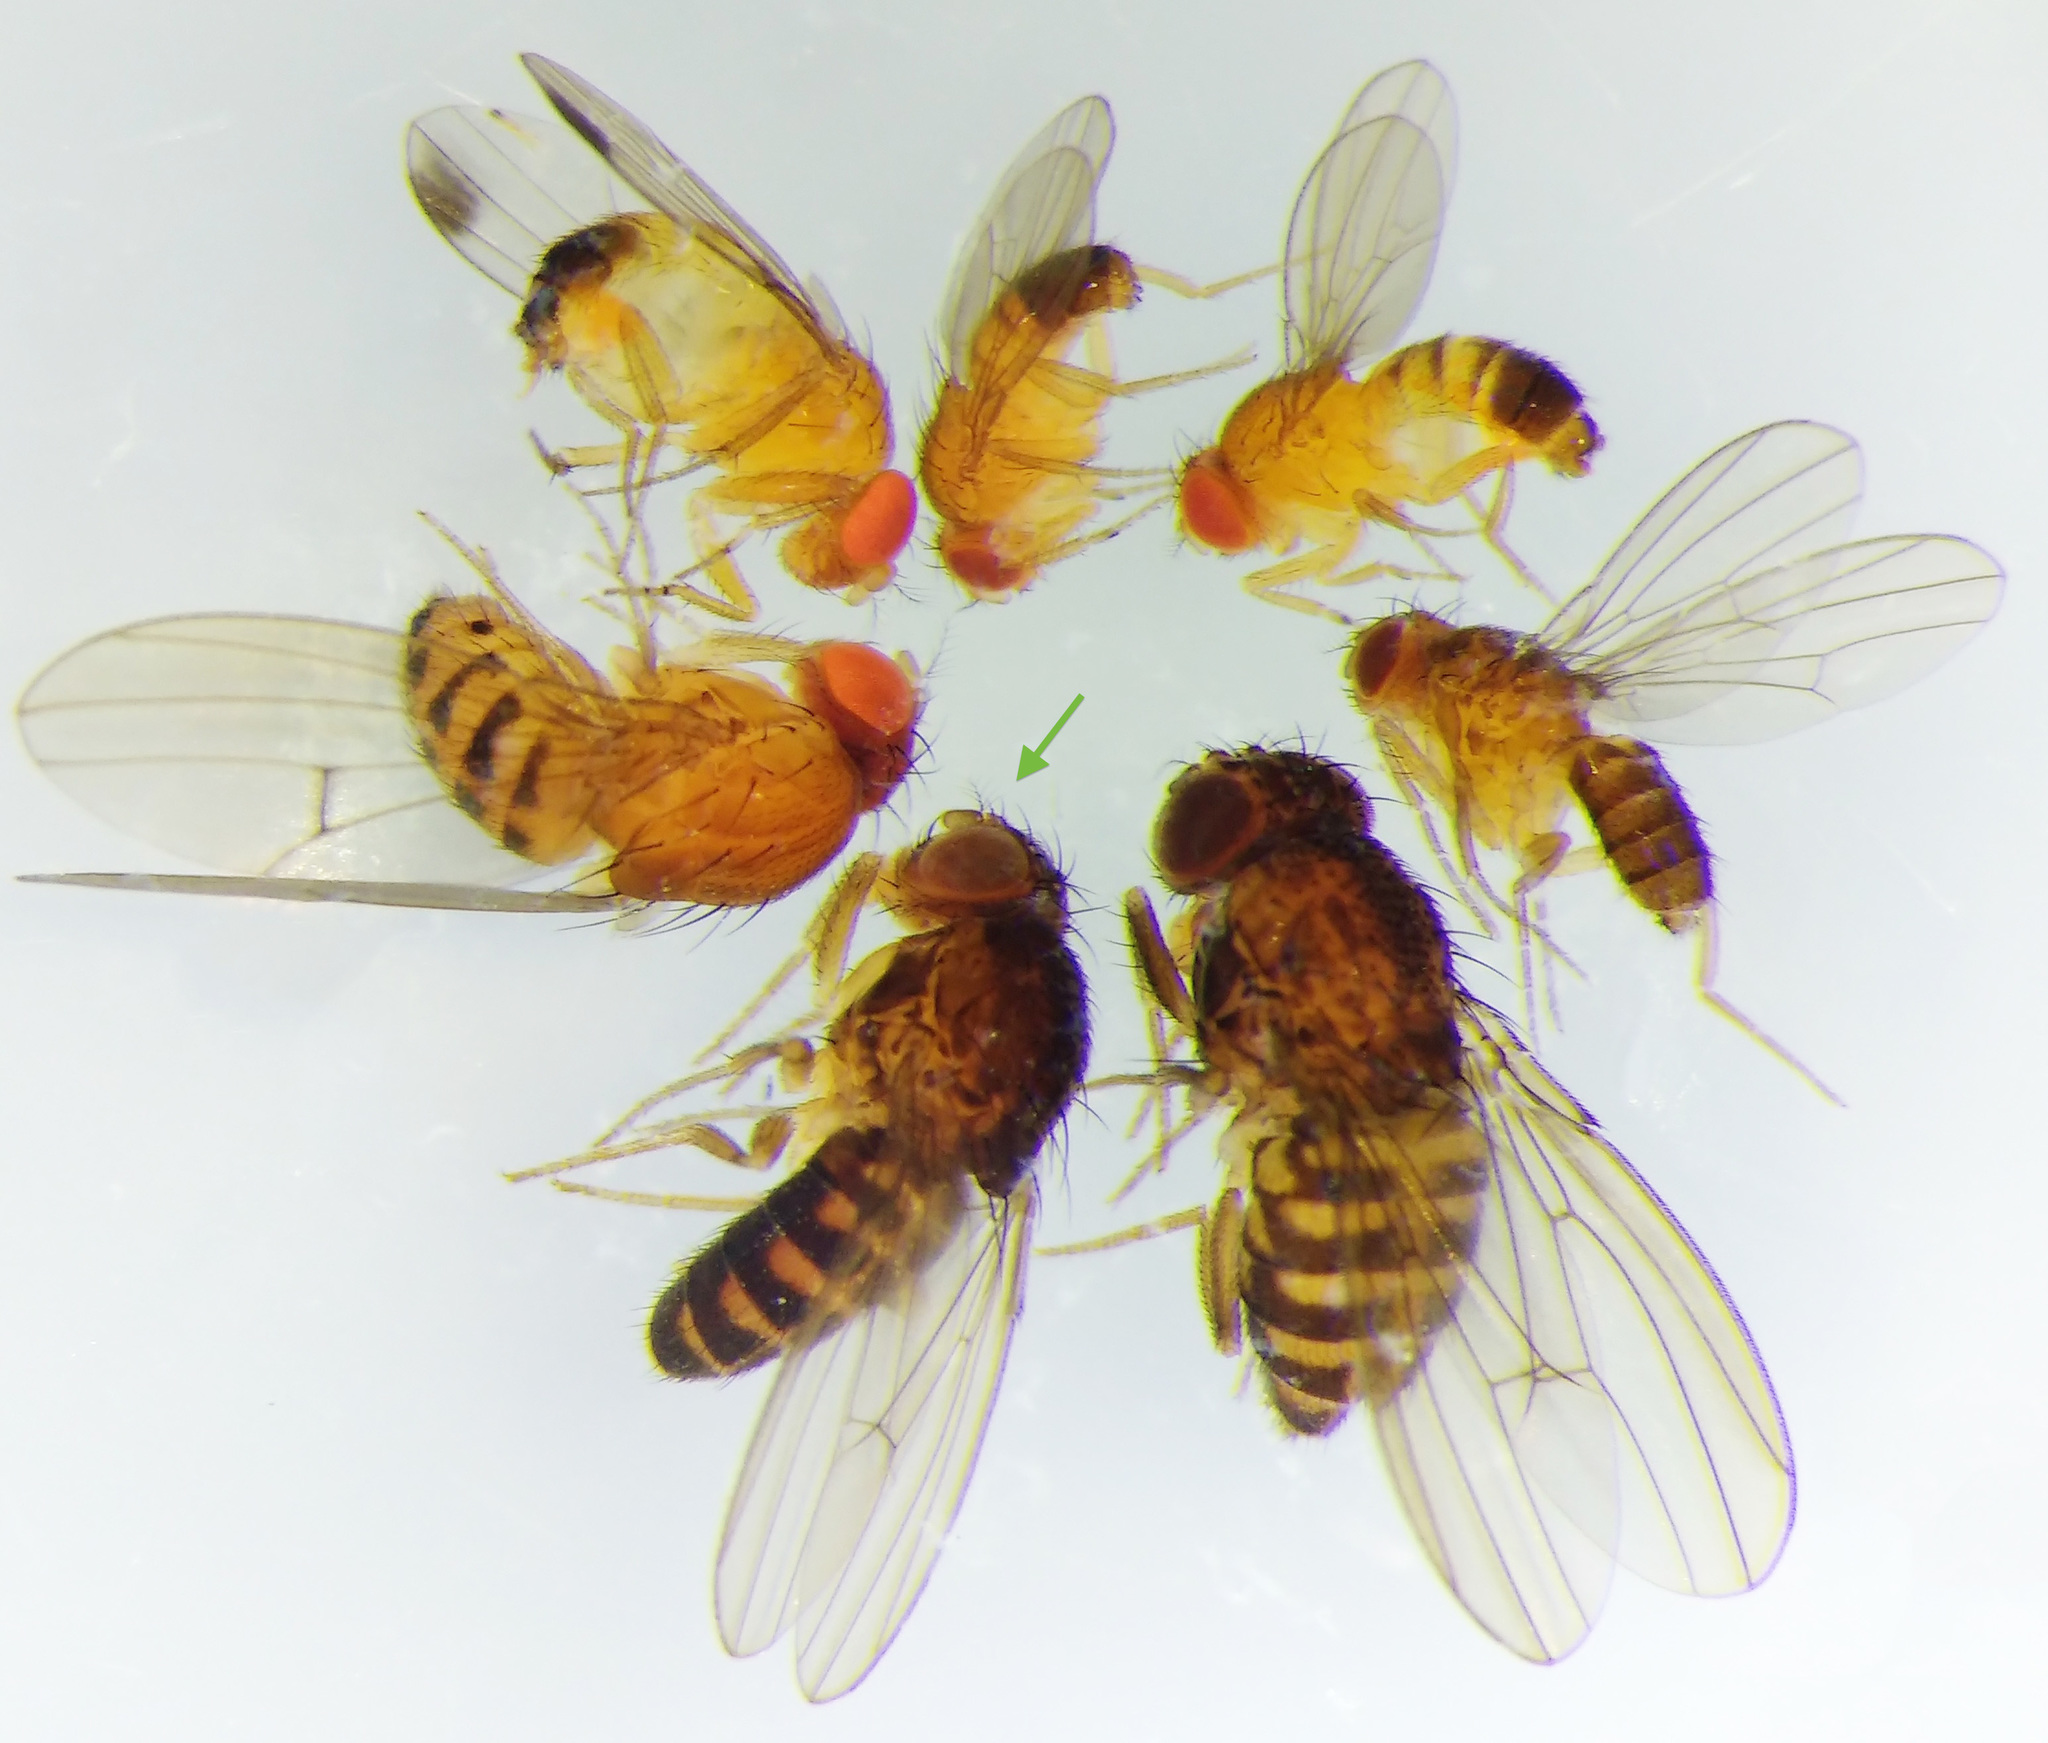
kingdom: Animalia
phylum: Arthropoda
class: Insecta
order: Diptera
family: Drosophilidae
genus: Drosophila
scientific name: Drosophila hydei
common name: Pomace fly
